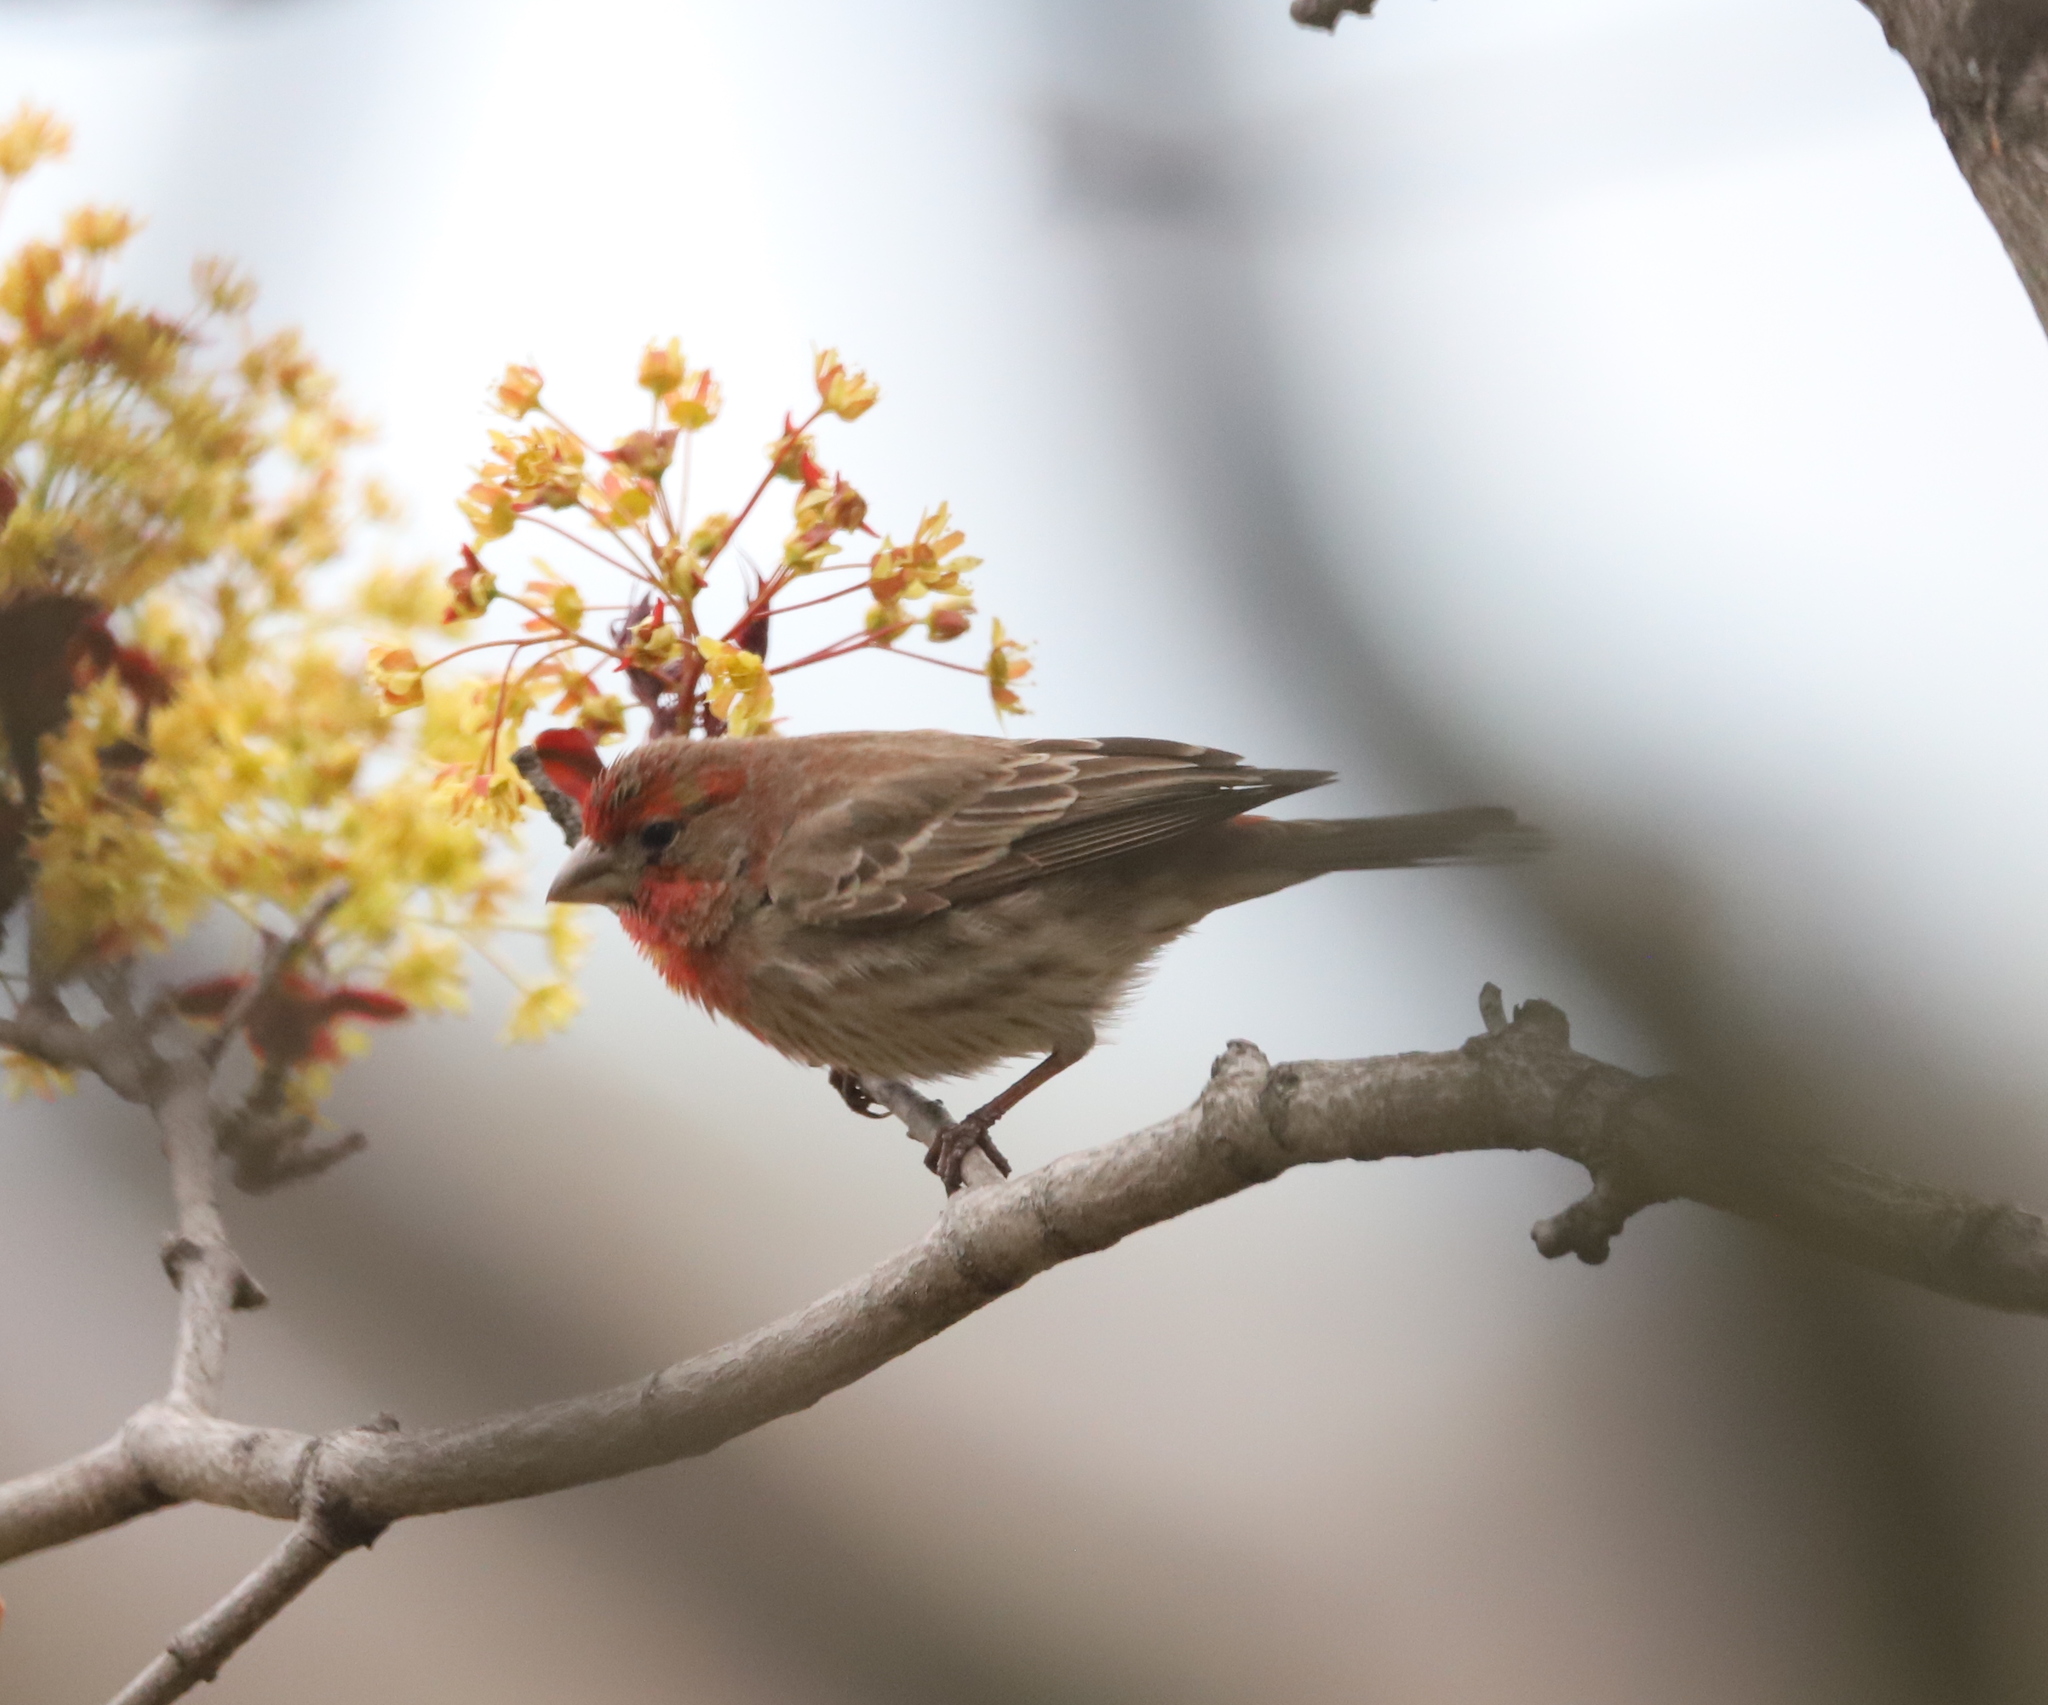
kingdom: Animalia
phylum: Chordata
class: Aves
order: Passeriformes
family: Fringillidae
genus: Haemorhous
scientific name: Haemorhous mexicanus
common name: House finch
